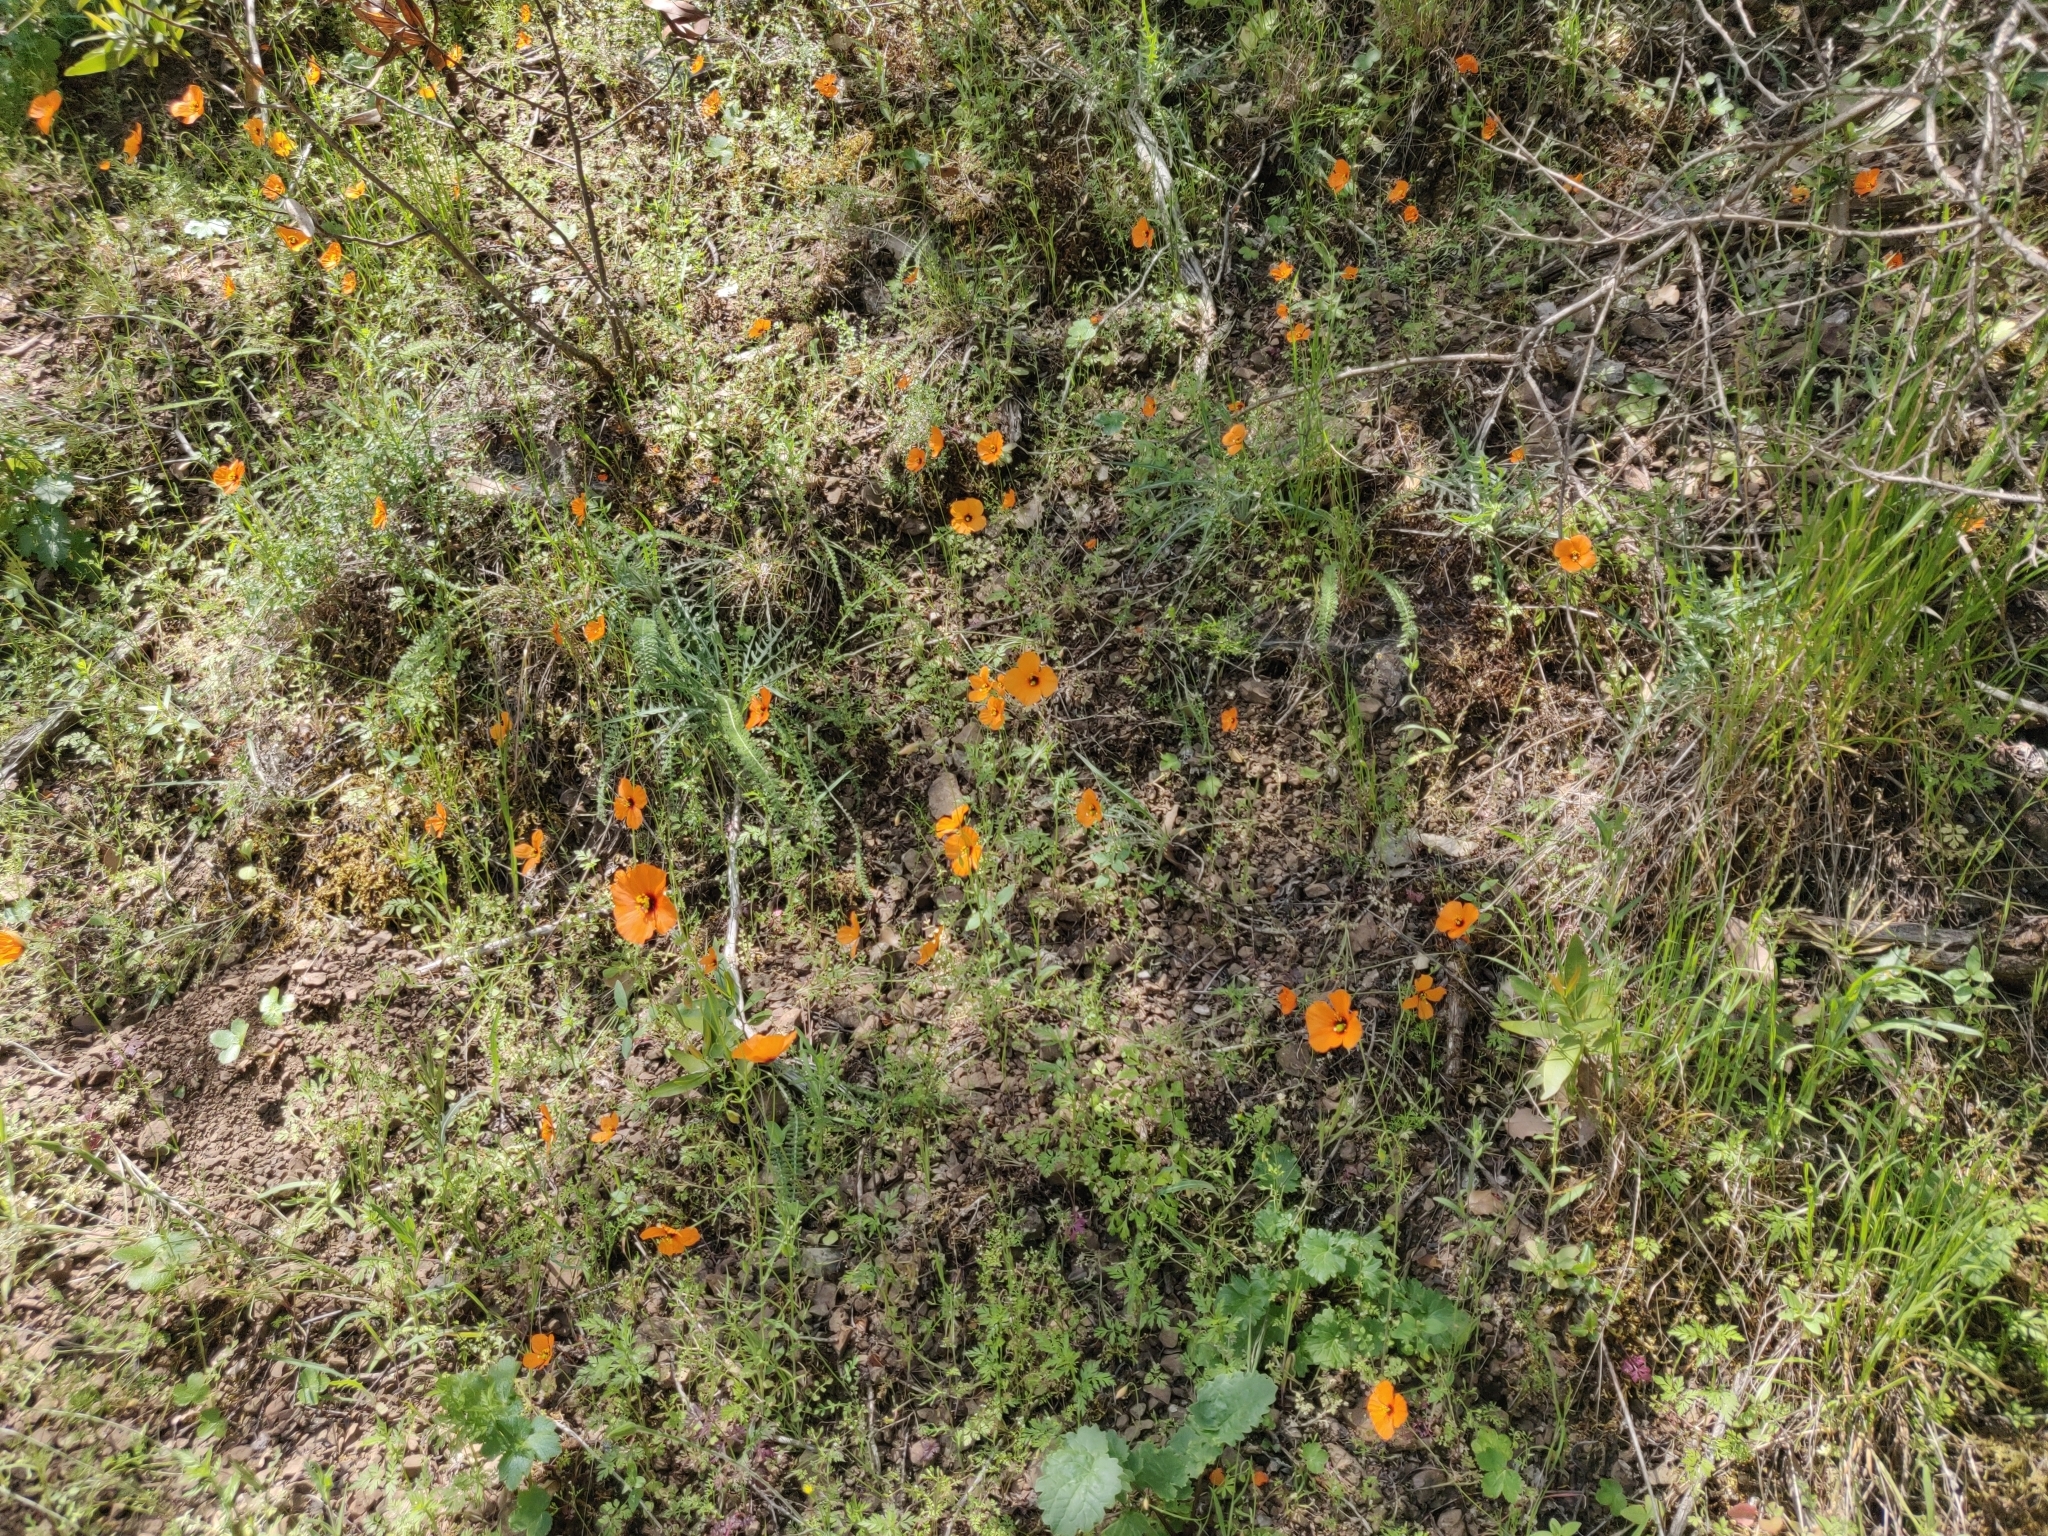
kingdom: Plantae
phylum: Tracheophyta
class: Magnoliopsida
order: Ranunculales
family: Papaveraceae
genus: Stylomecon
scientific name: Stylomecon heterophylla
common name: Flaming-poppy
